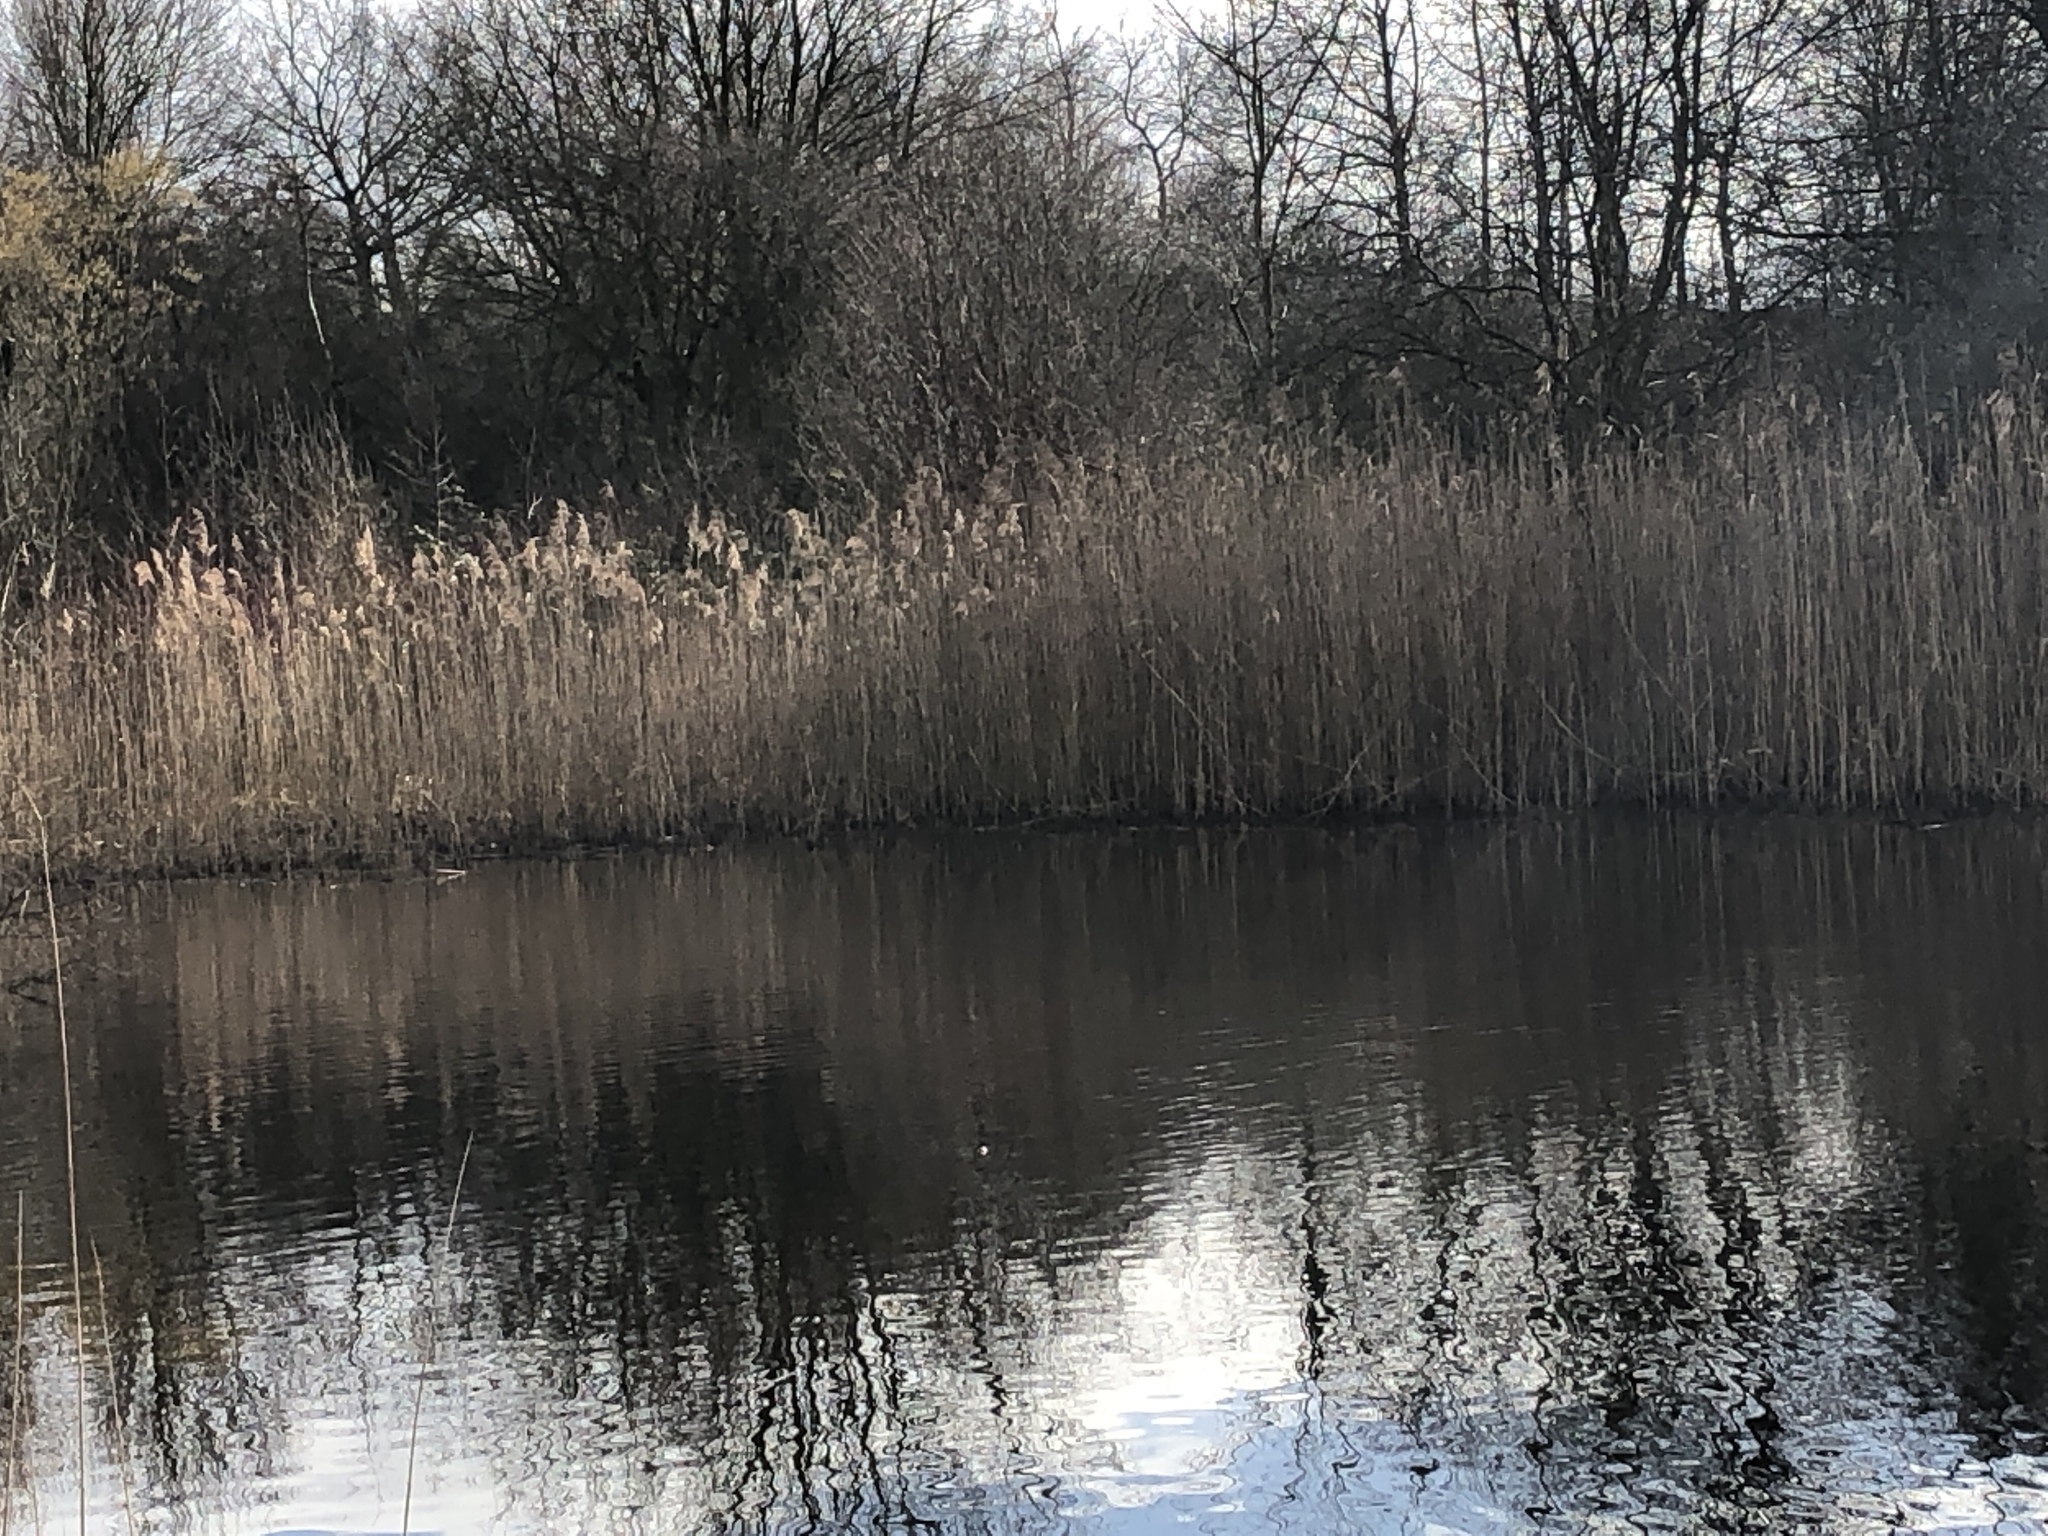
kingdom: Plantae
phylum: Tracheophyta
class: Liliopsida
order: Poales
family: Poaceae
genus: Phragmites
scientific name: Phragmites australis
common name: Common reed
